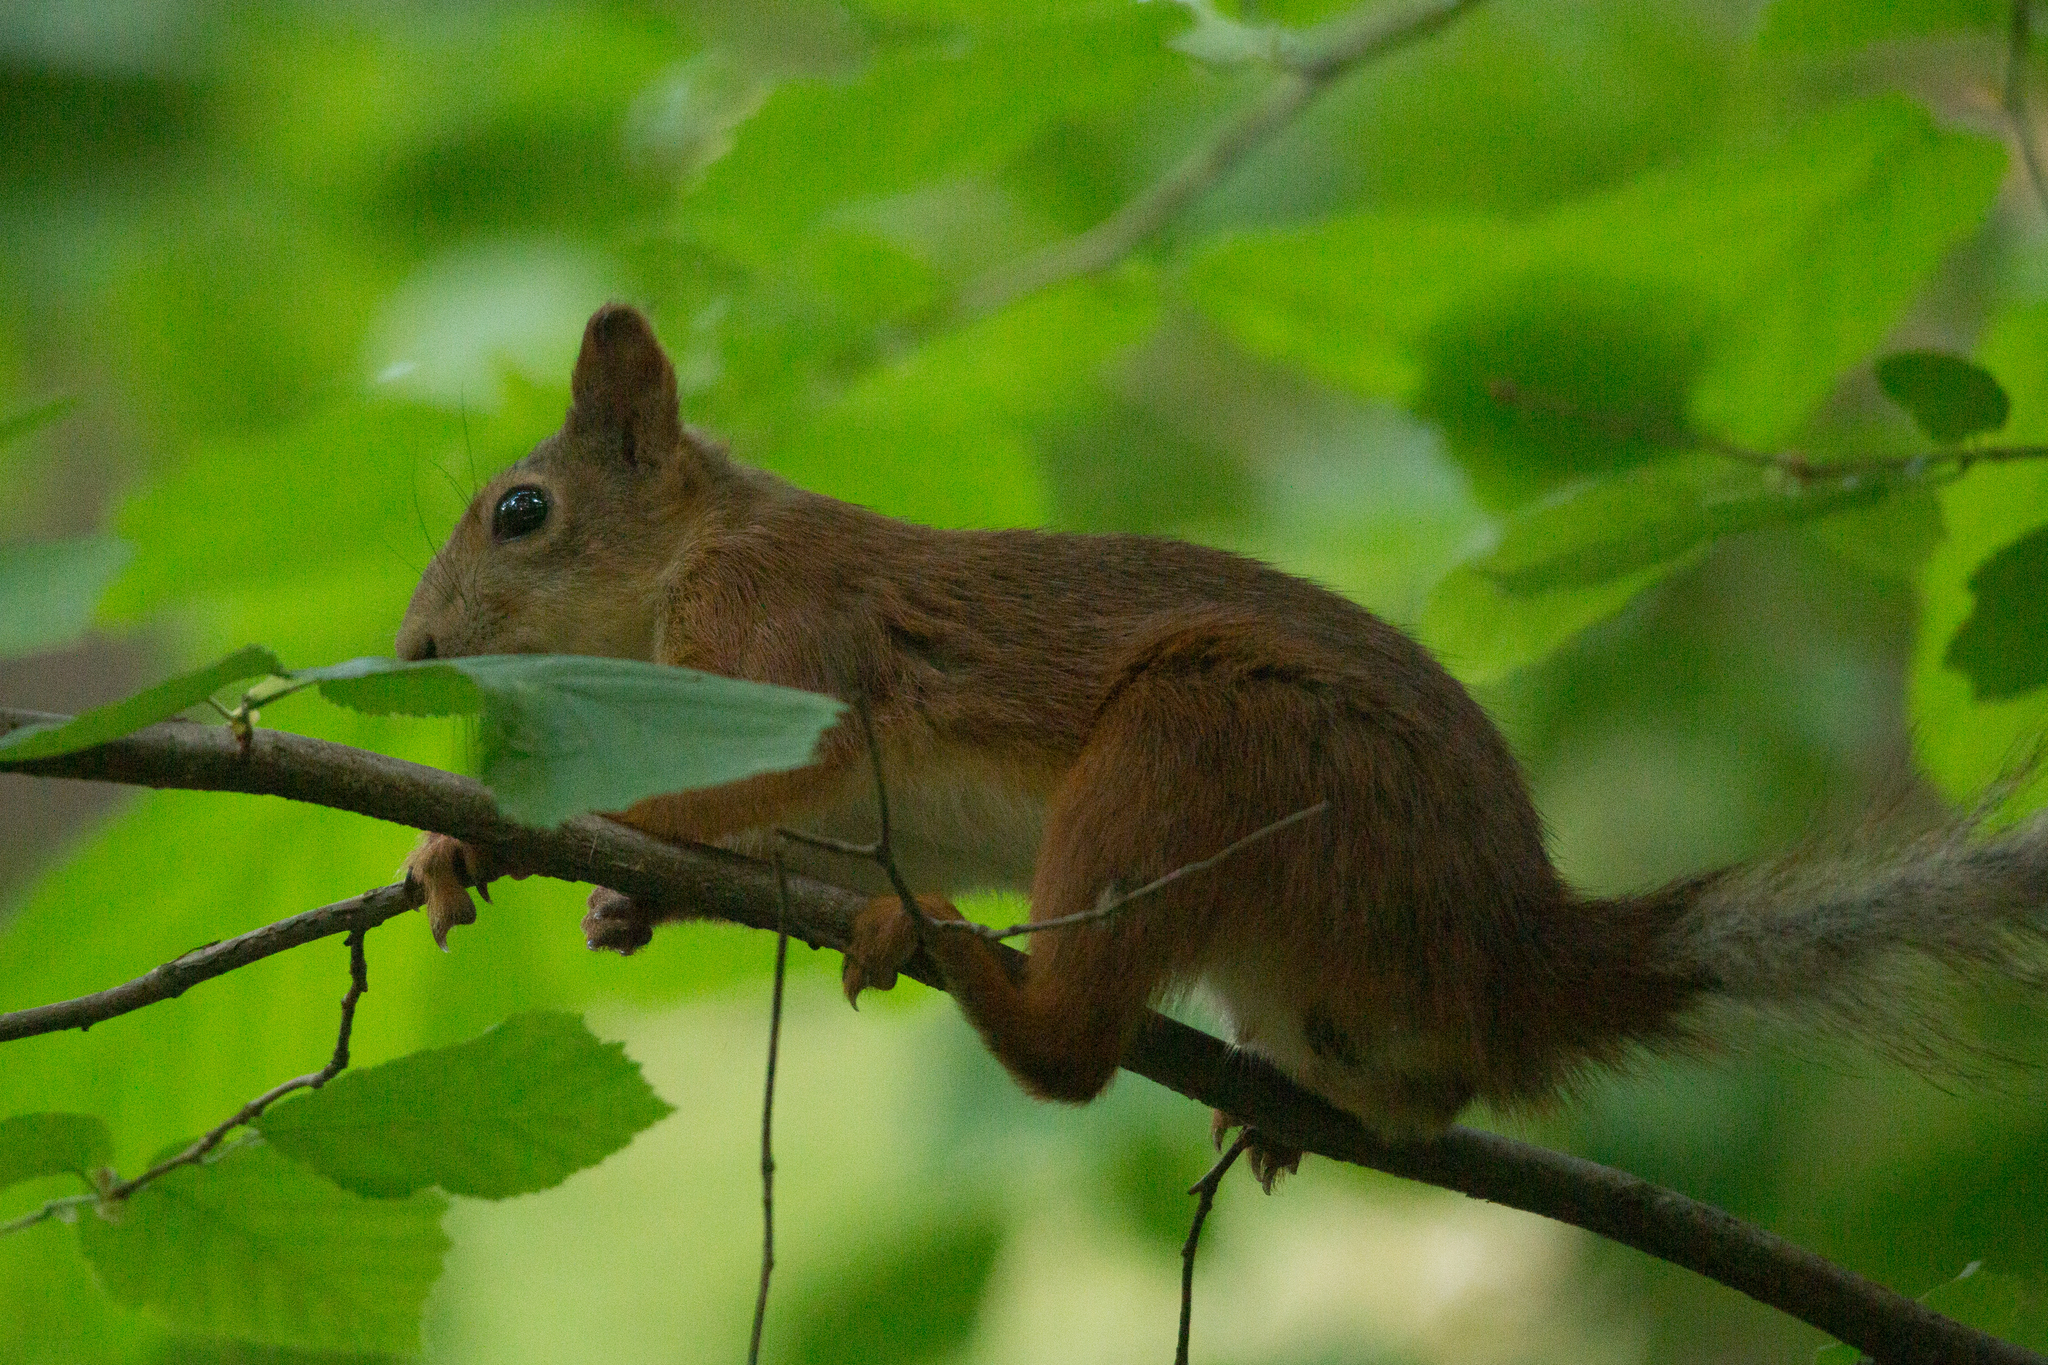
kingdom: Animalia
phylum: Chordata
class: Mammalia
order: Rodentia
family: Sciuridae
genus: Sciurus
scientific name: Sciurus vulgaris
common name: Eurasian red squirrel
